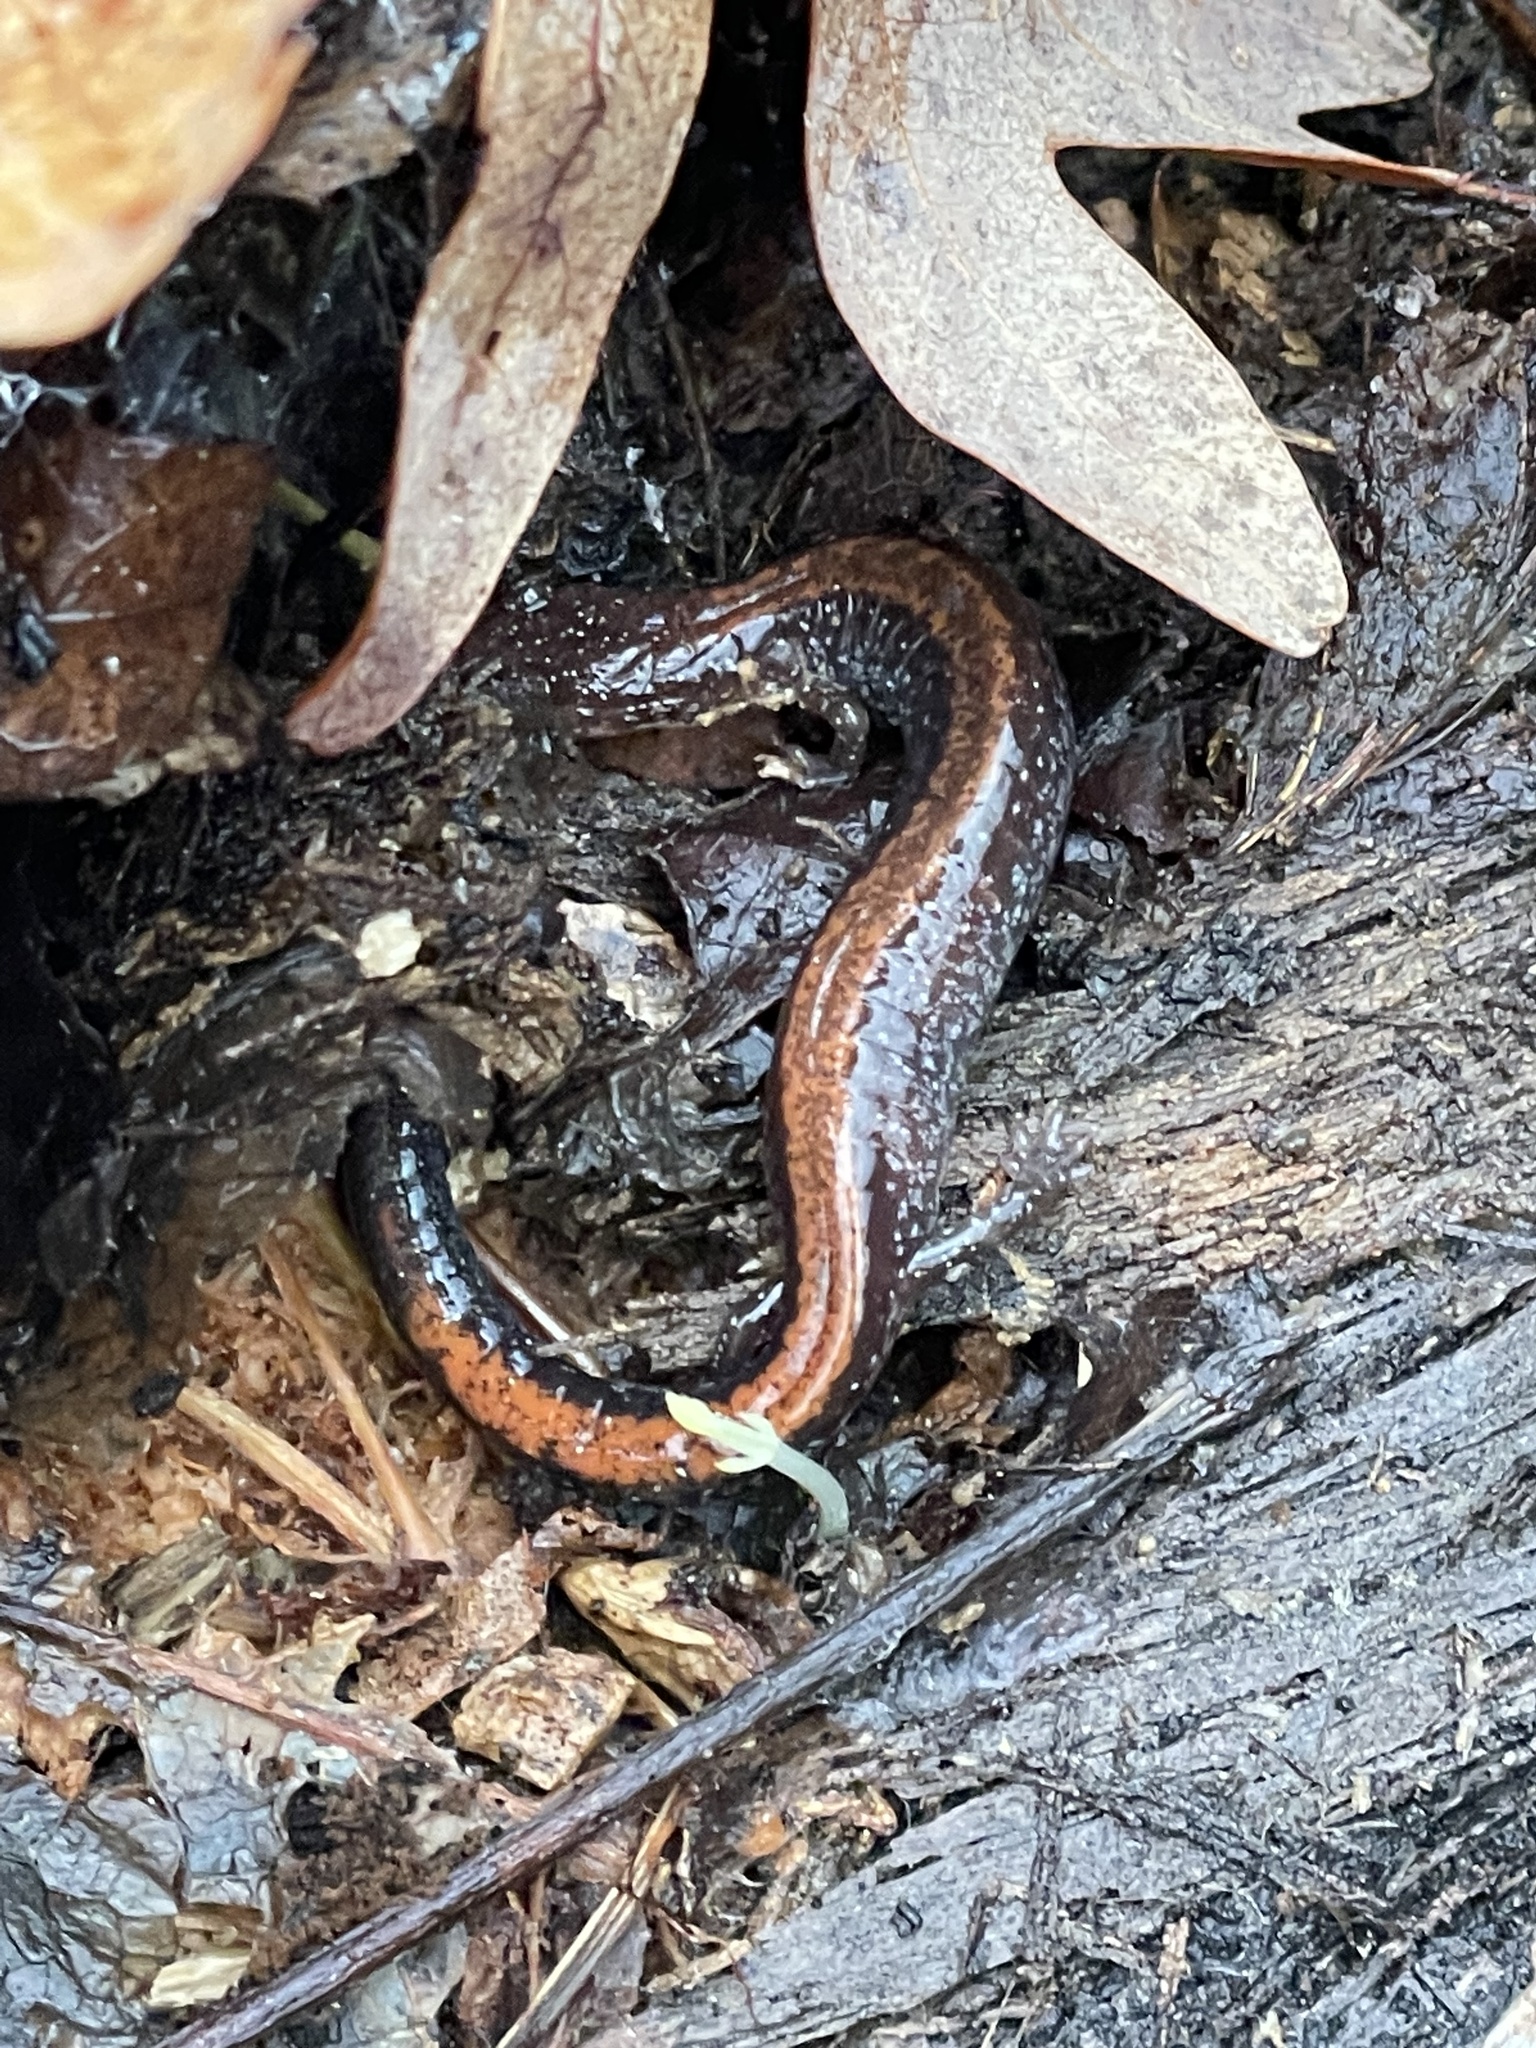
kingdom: Animalia
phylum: Chordata
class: Amphibia
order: Caudata
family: Plethodontidae
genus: Plethodon
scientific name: Plethodon cinereus
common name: Redback salamander
